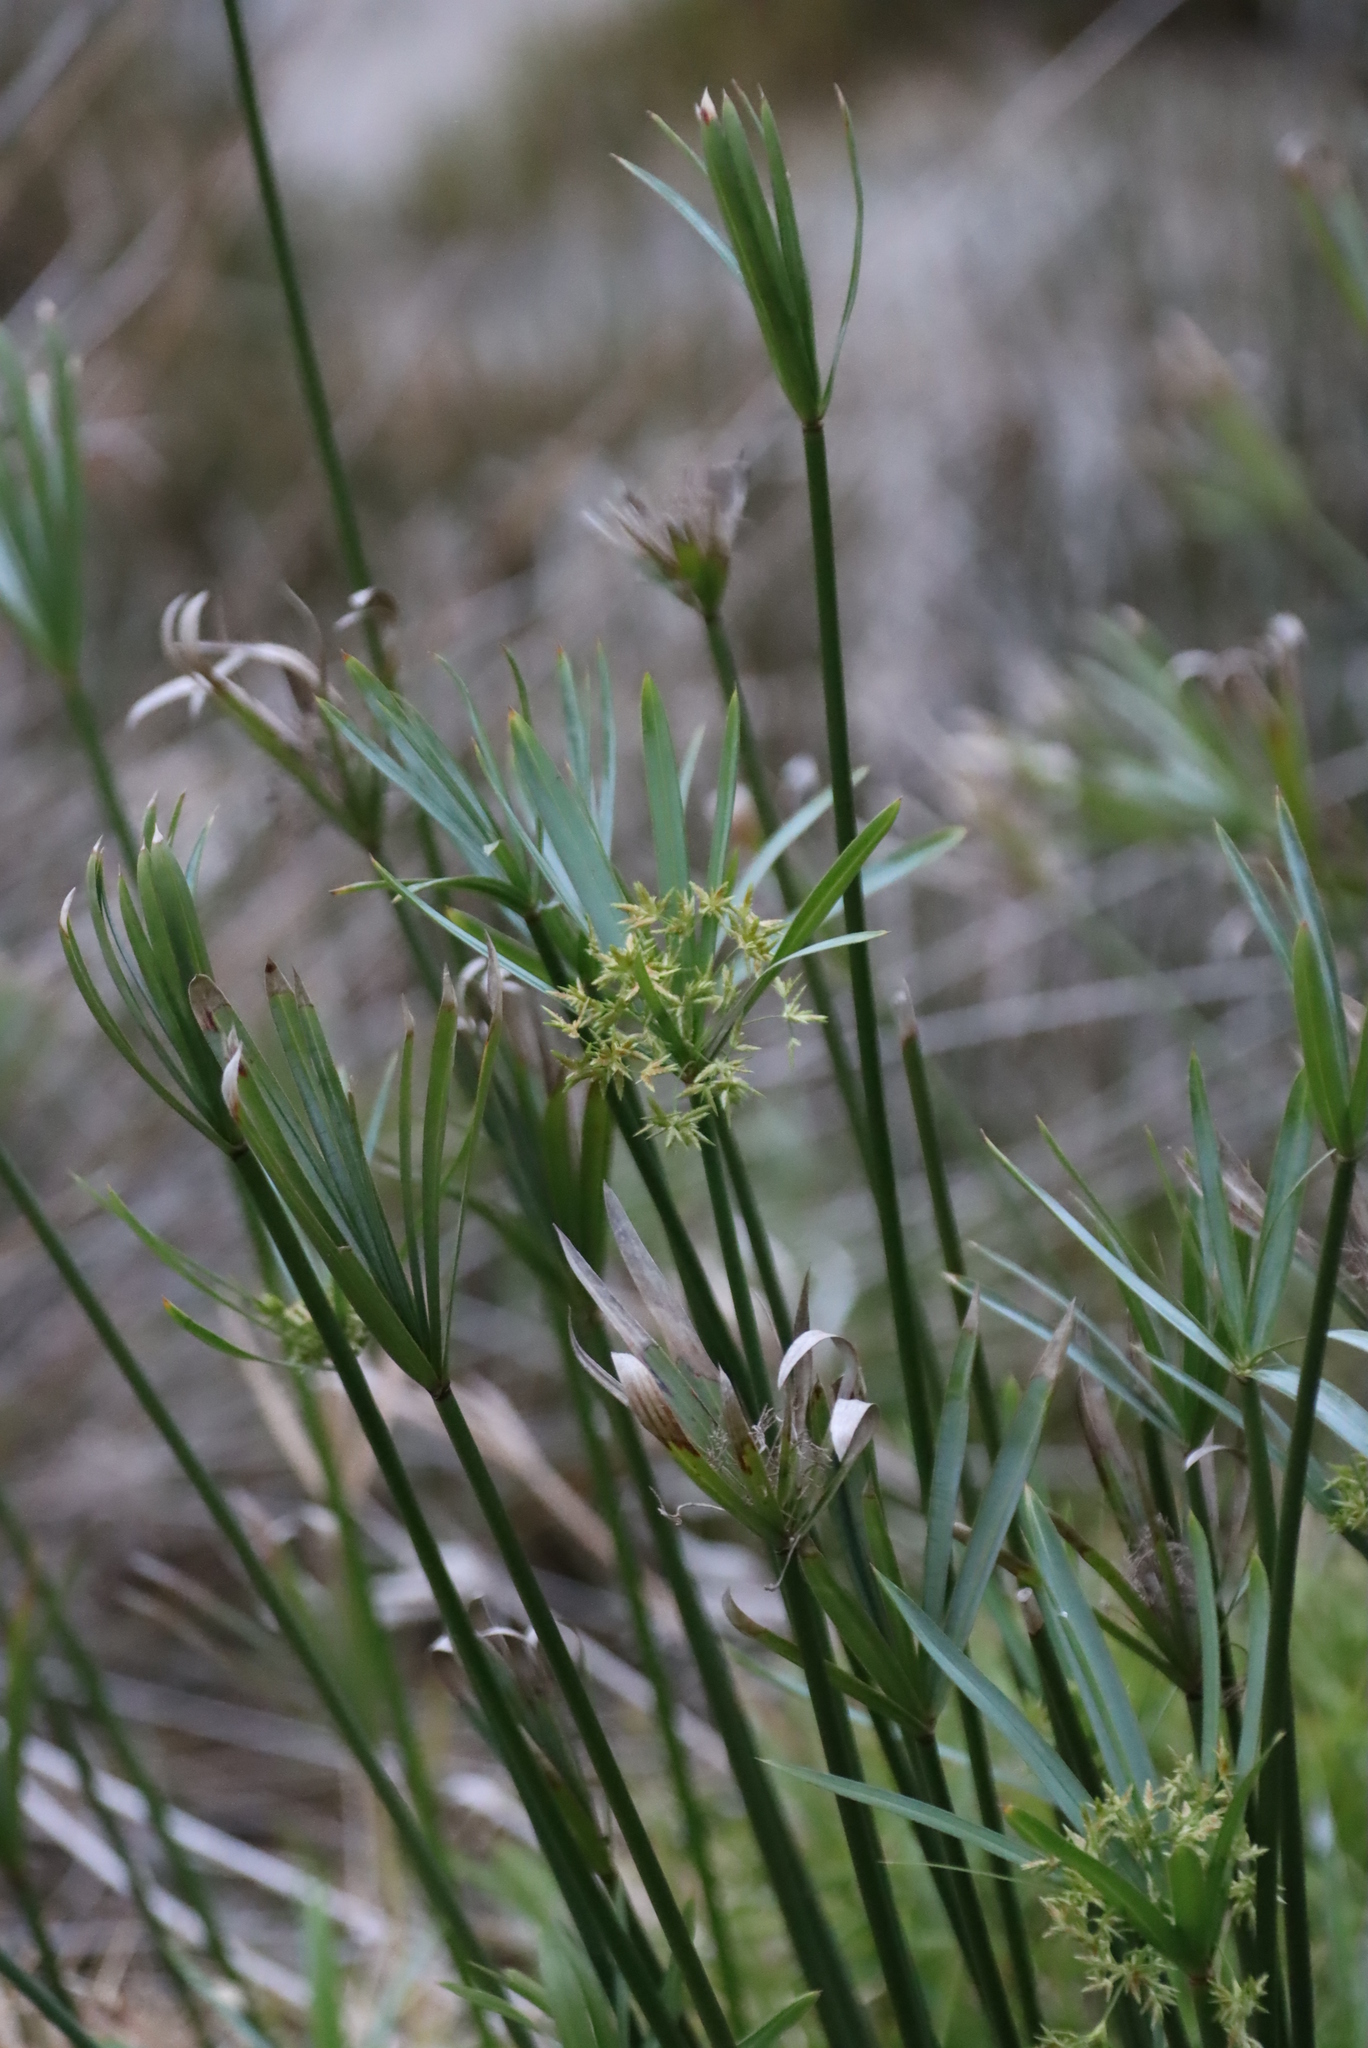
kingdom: Plantae
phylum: Tracheophyta
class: Liliopsida
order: Poales
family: Cyperaceae
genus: Cyperus
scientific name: Cyperus textilis
